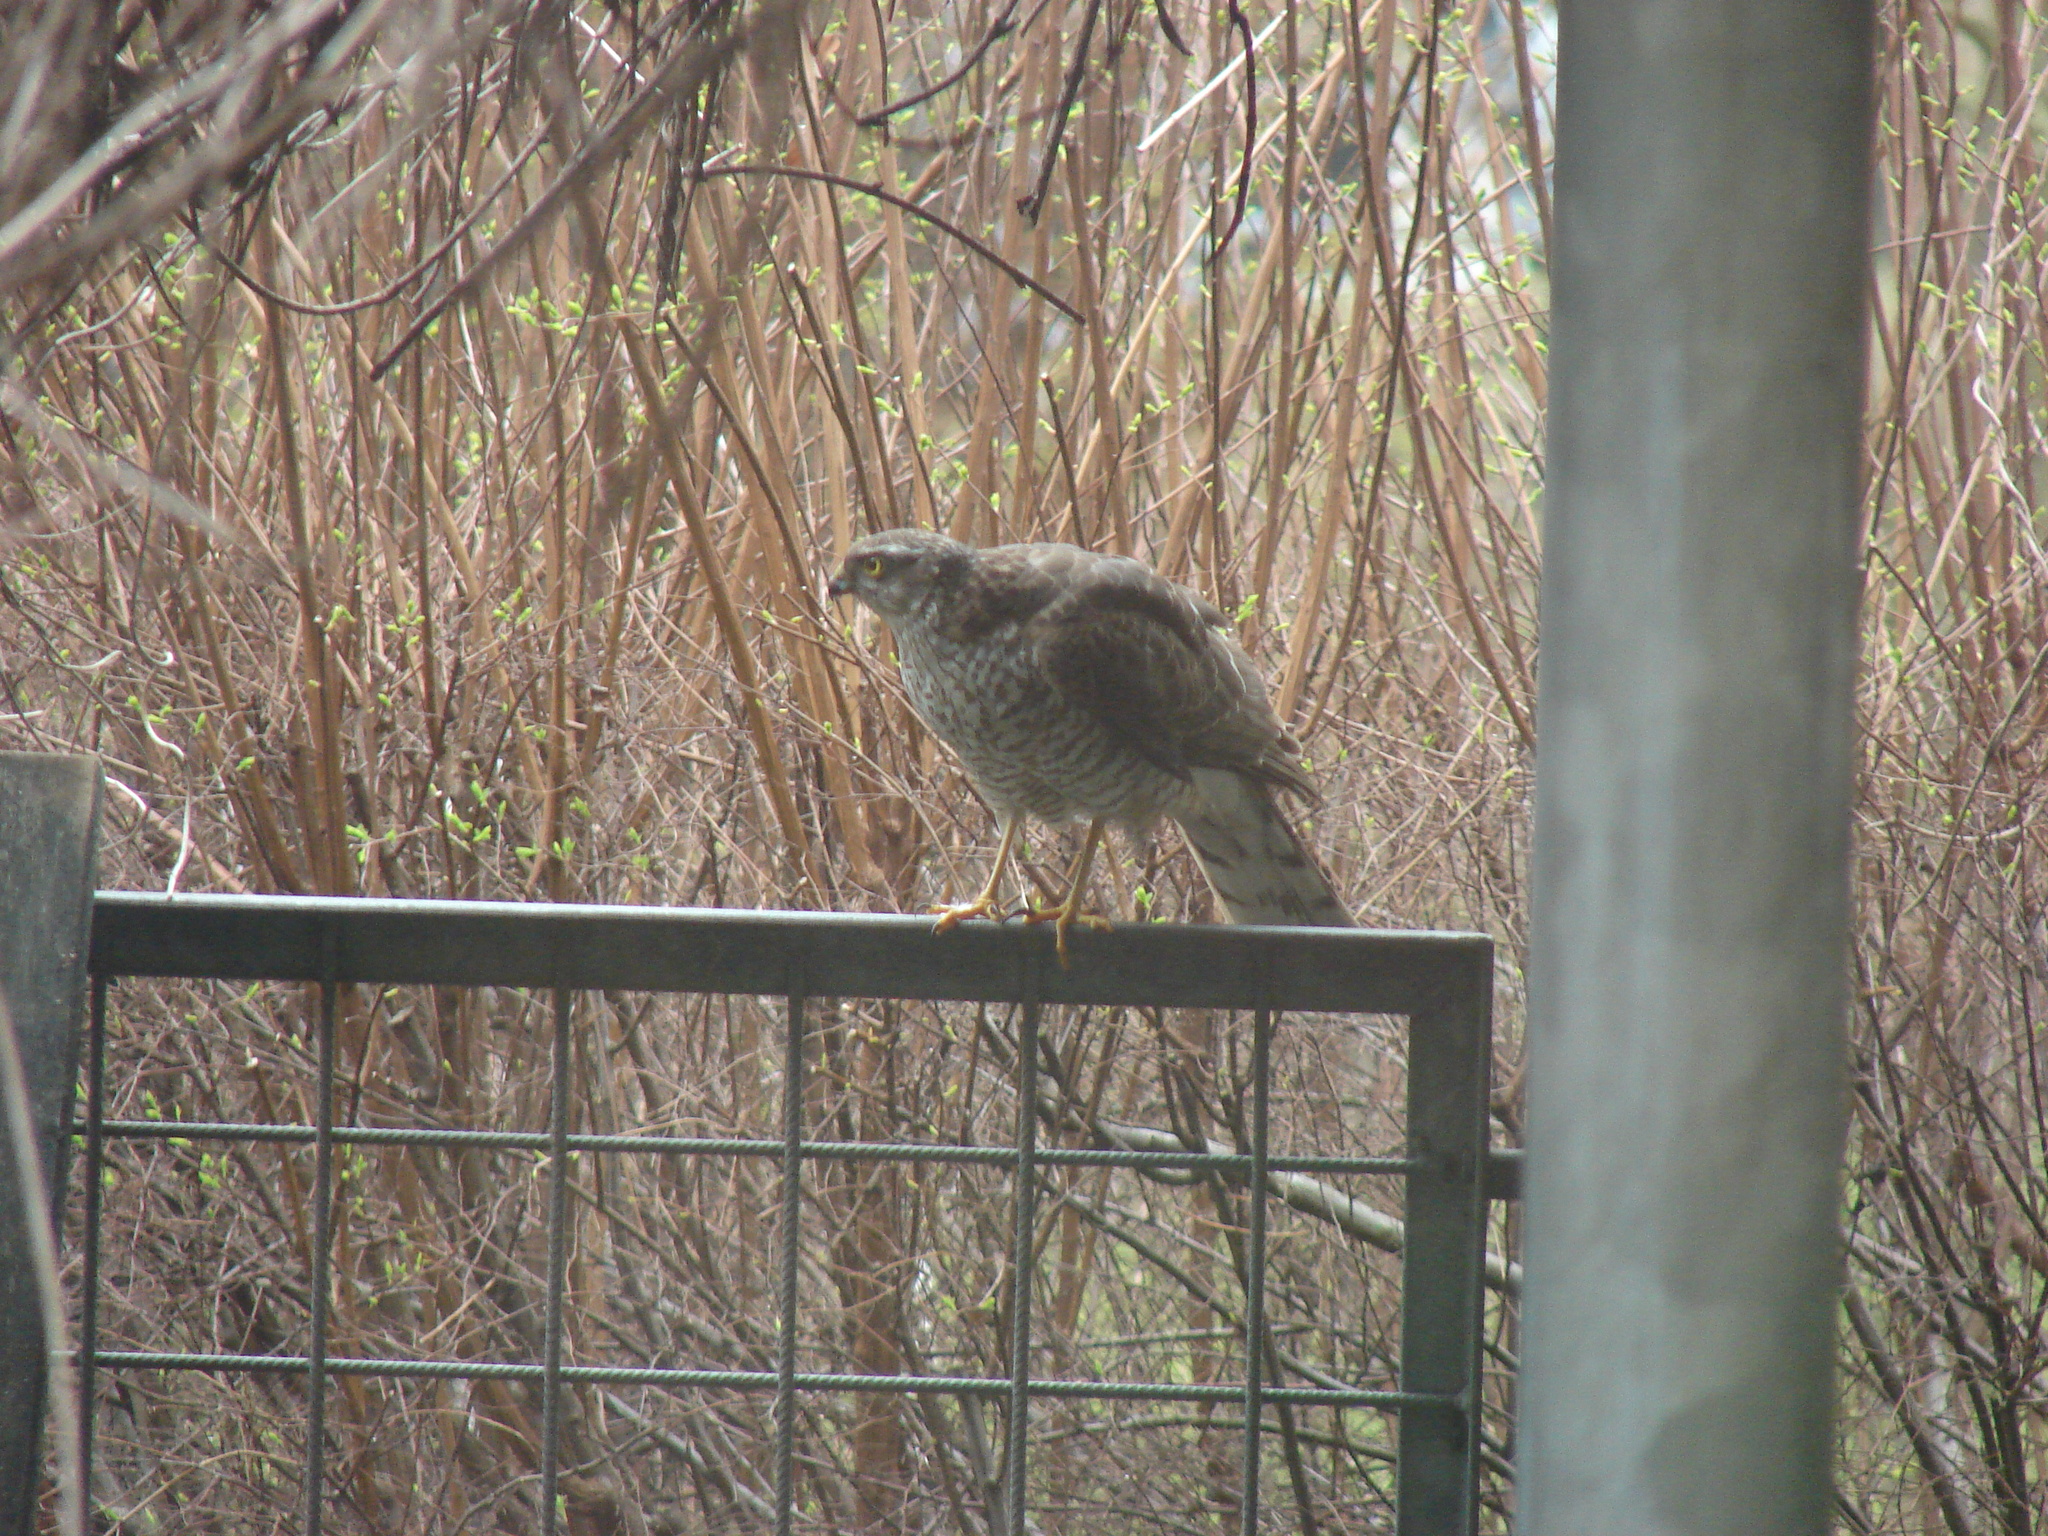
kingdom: Animalia
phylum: Chordata
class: Aves
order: Accipitriformes
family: Accipitridae
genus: Accipiter
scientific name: Accipiter nisus
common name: Eurasian sparrowhawk
